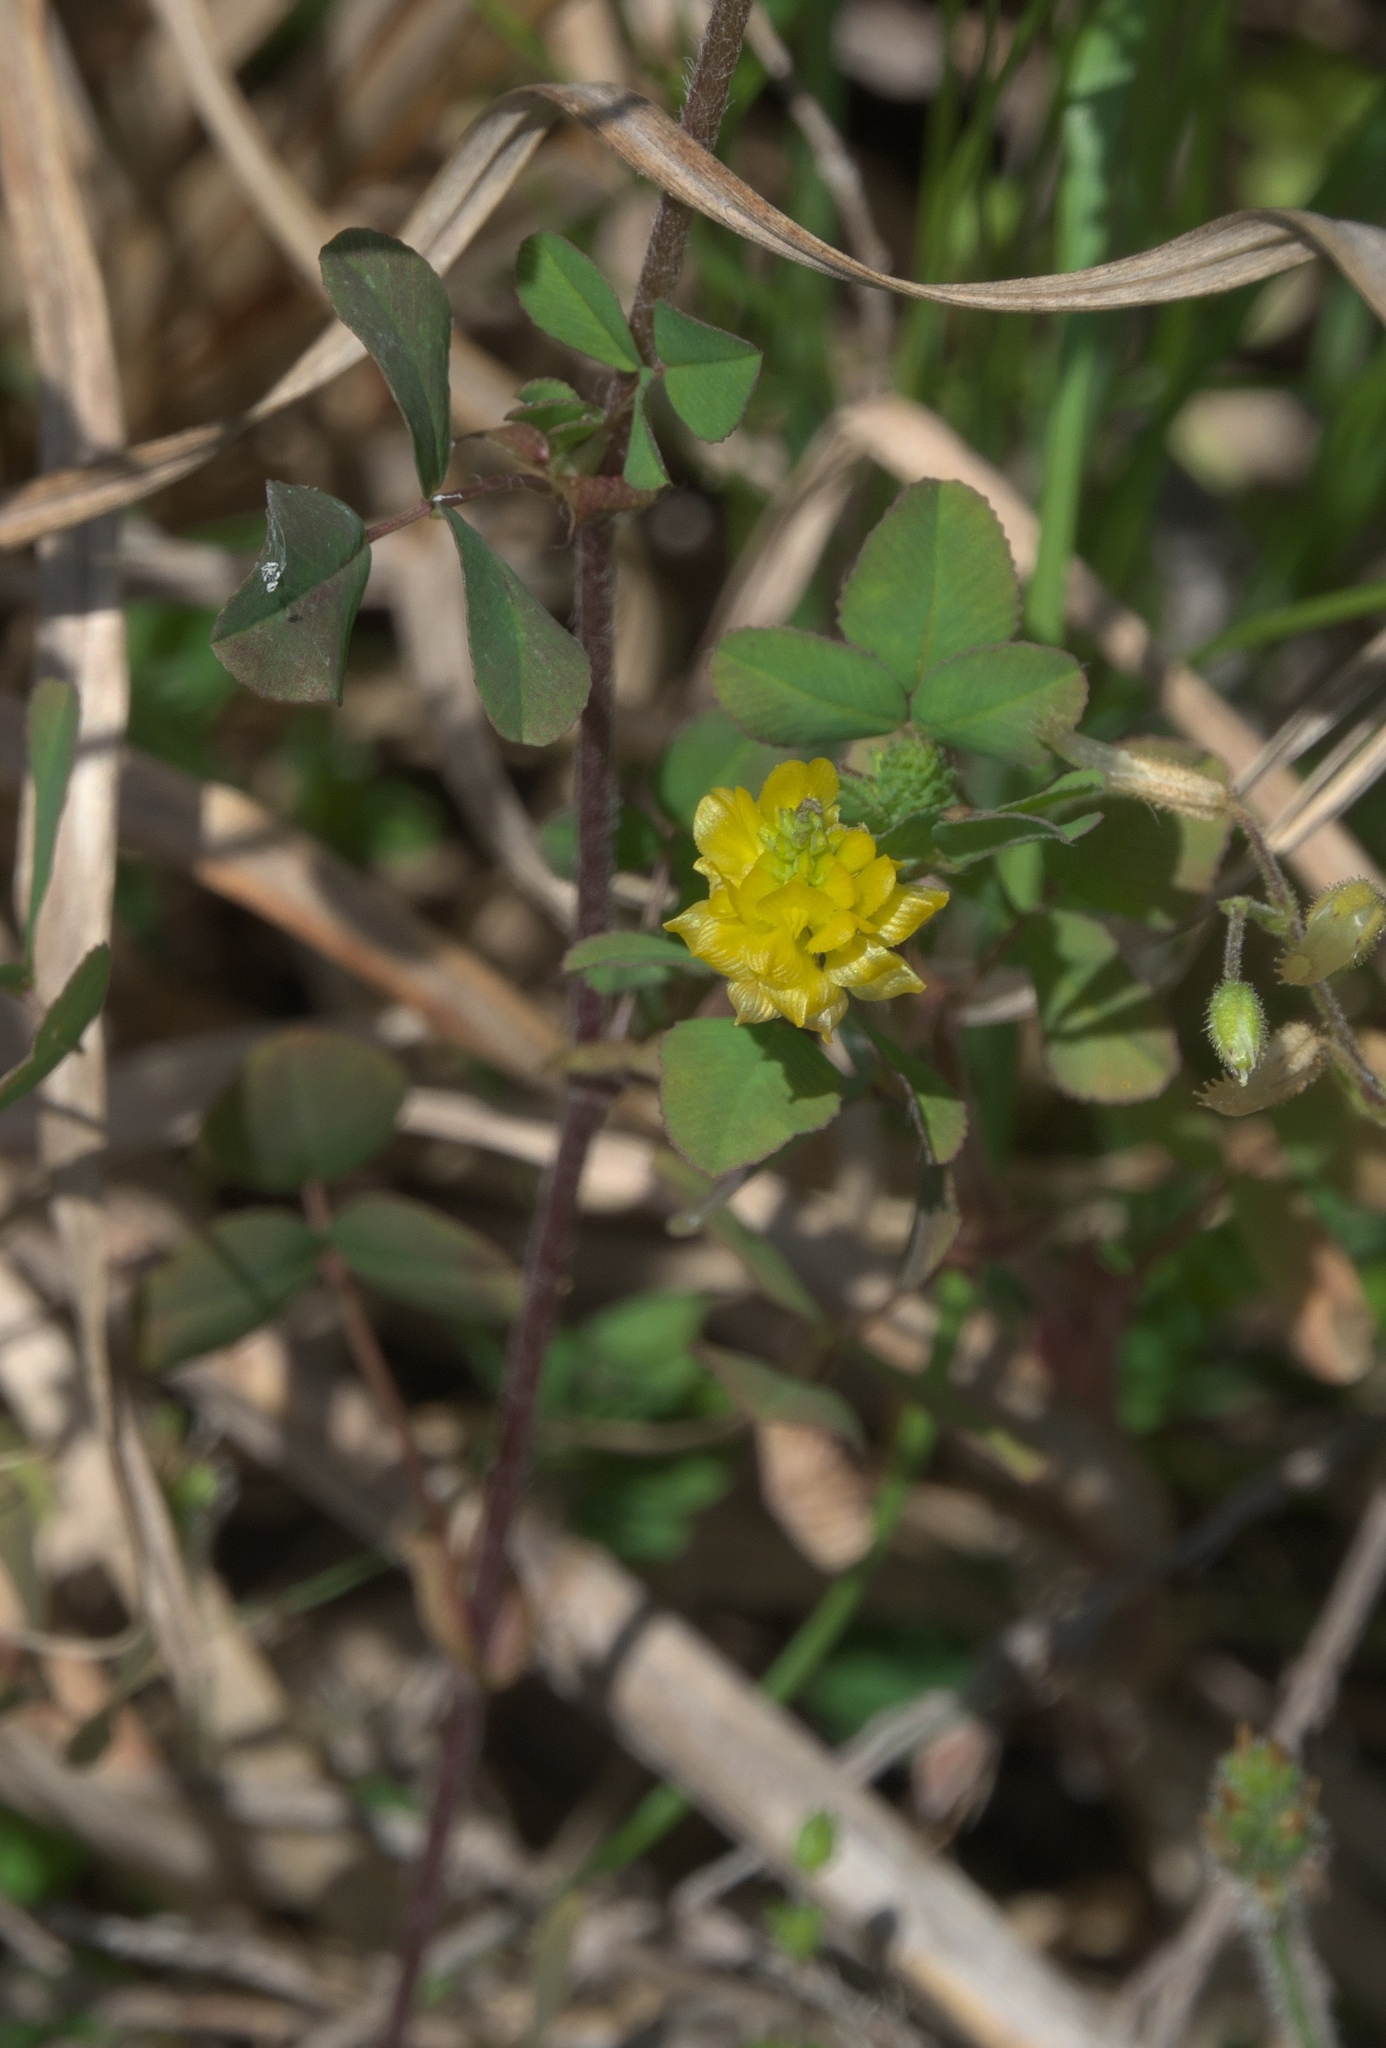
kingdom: Plantae
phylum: Tracheophyta
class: Magnoliopsida
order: Fabales
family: Fabaceae
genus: Trifolium
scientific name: Trifolium campestre
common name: Field clover
